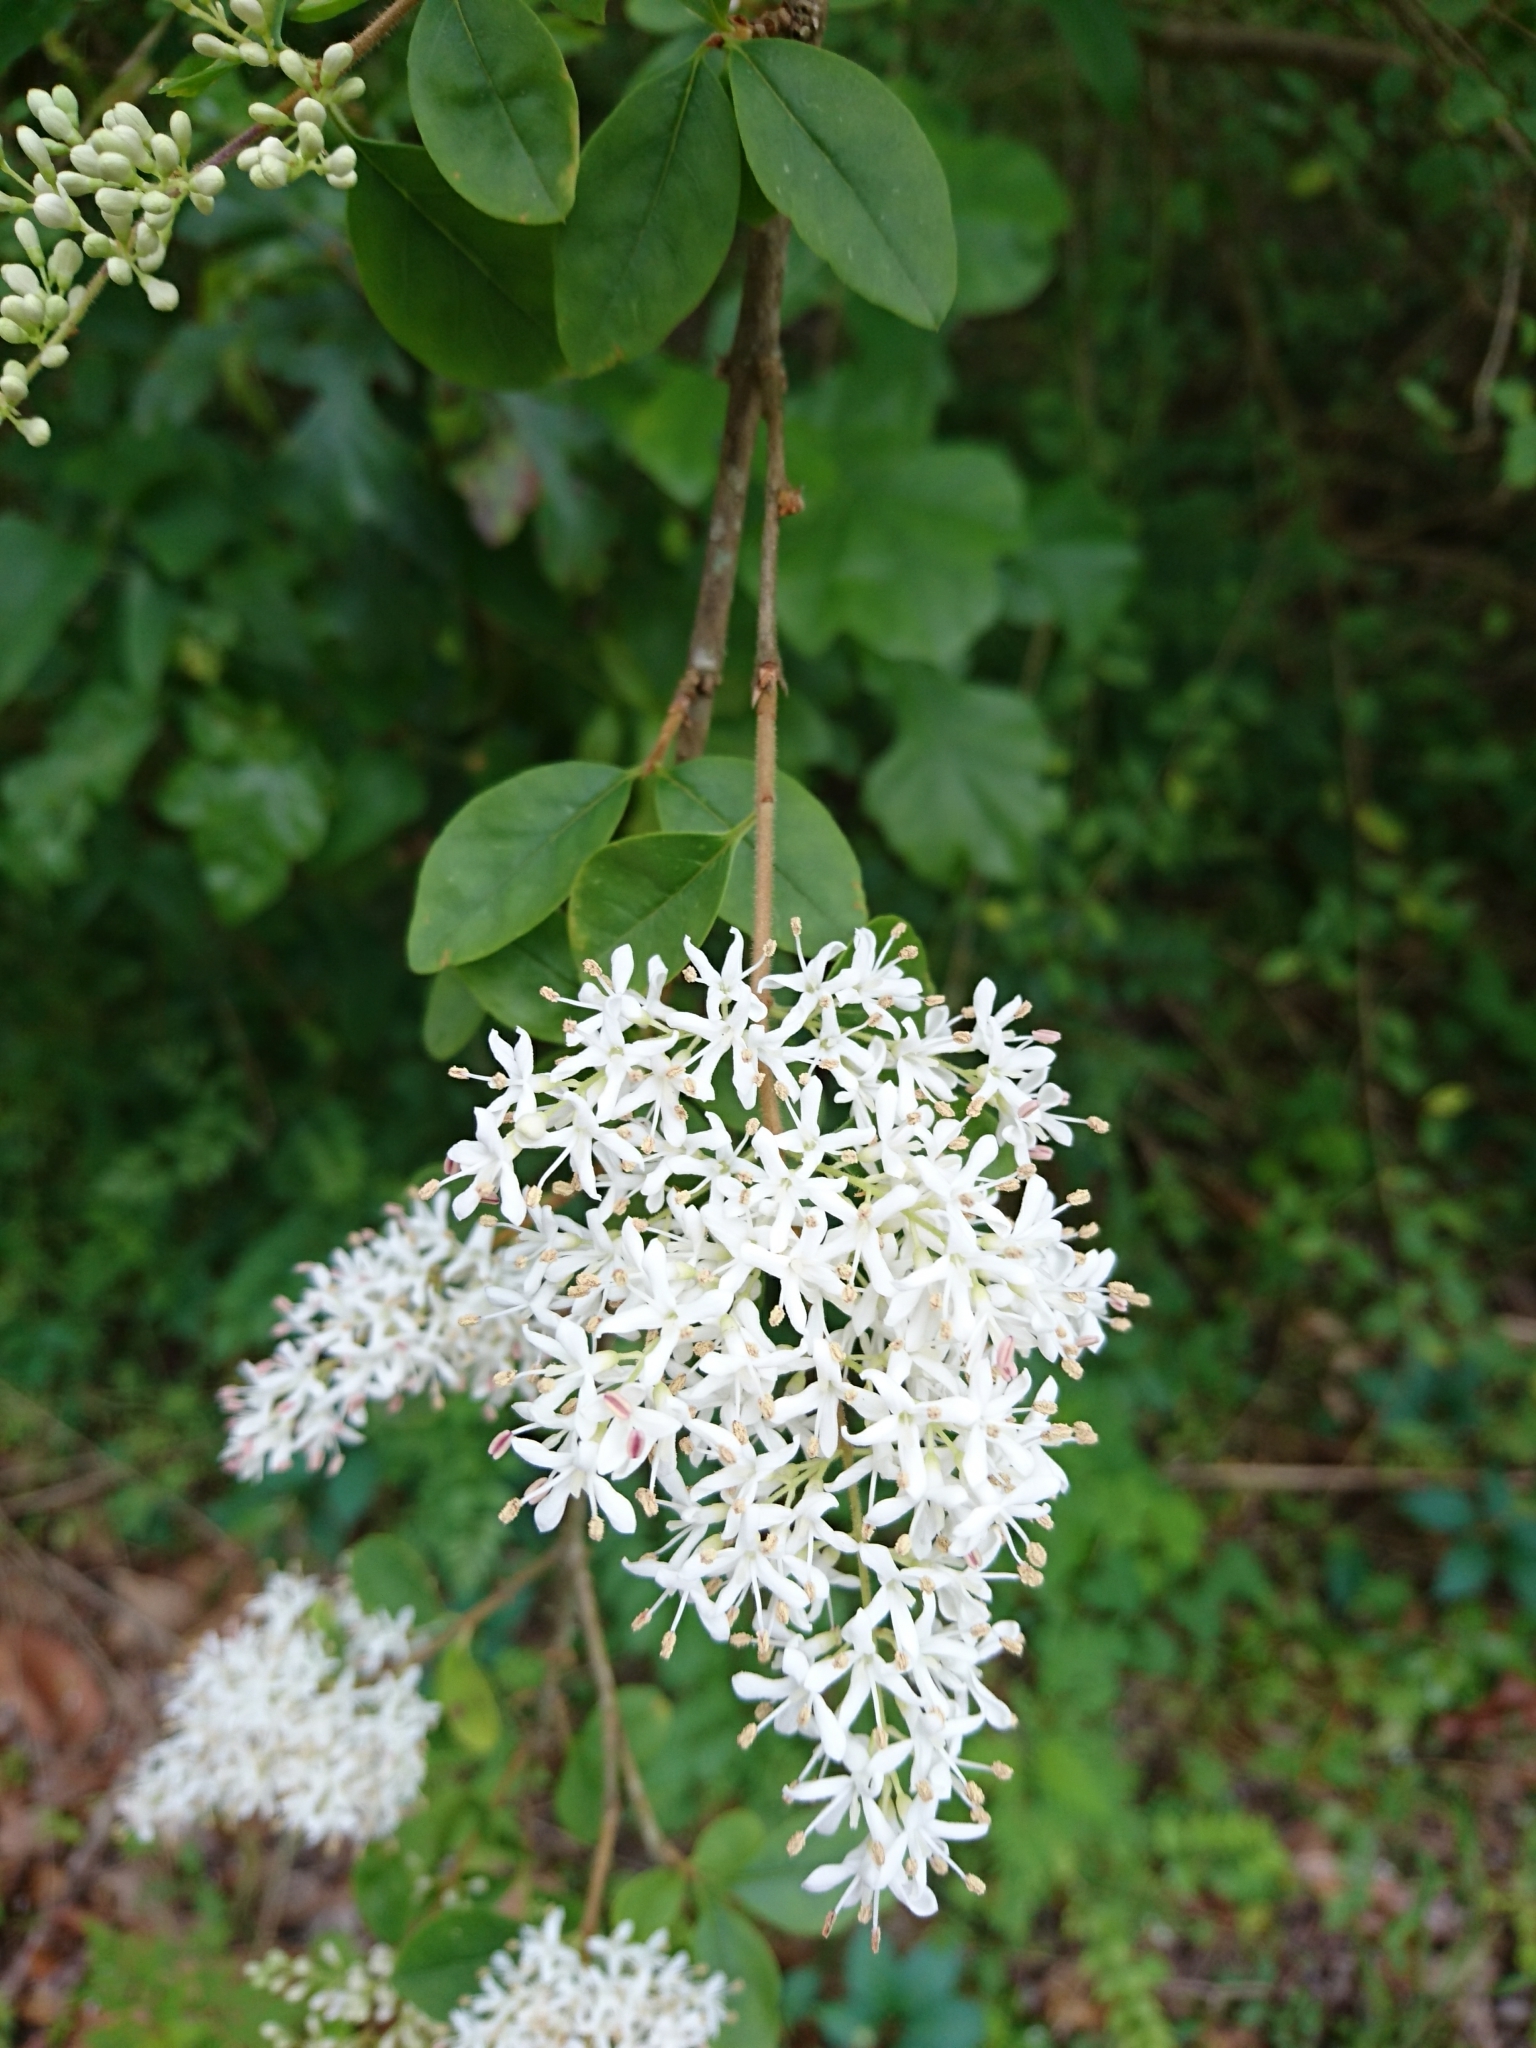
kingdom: Plantae
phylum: Tracheophyta
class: Magnoliopsida
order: Lamiales
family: Oleaceae
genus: Ligustrum
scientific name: Ligustrum sinense
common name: Chinese privet
